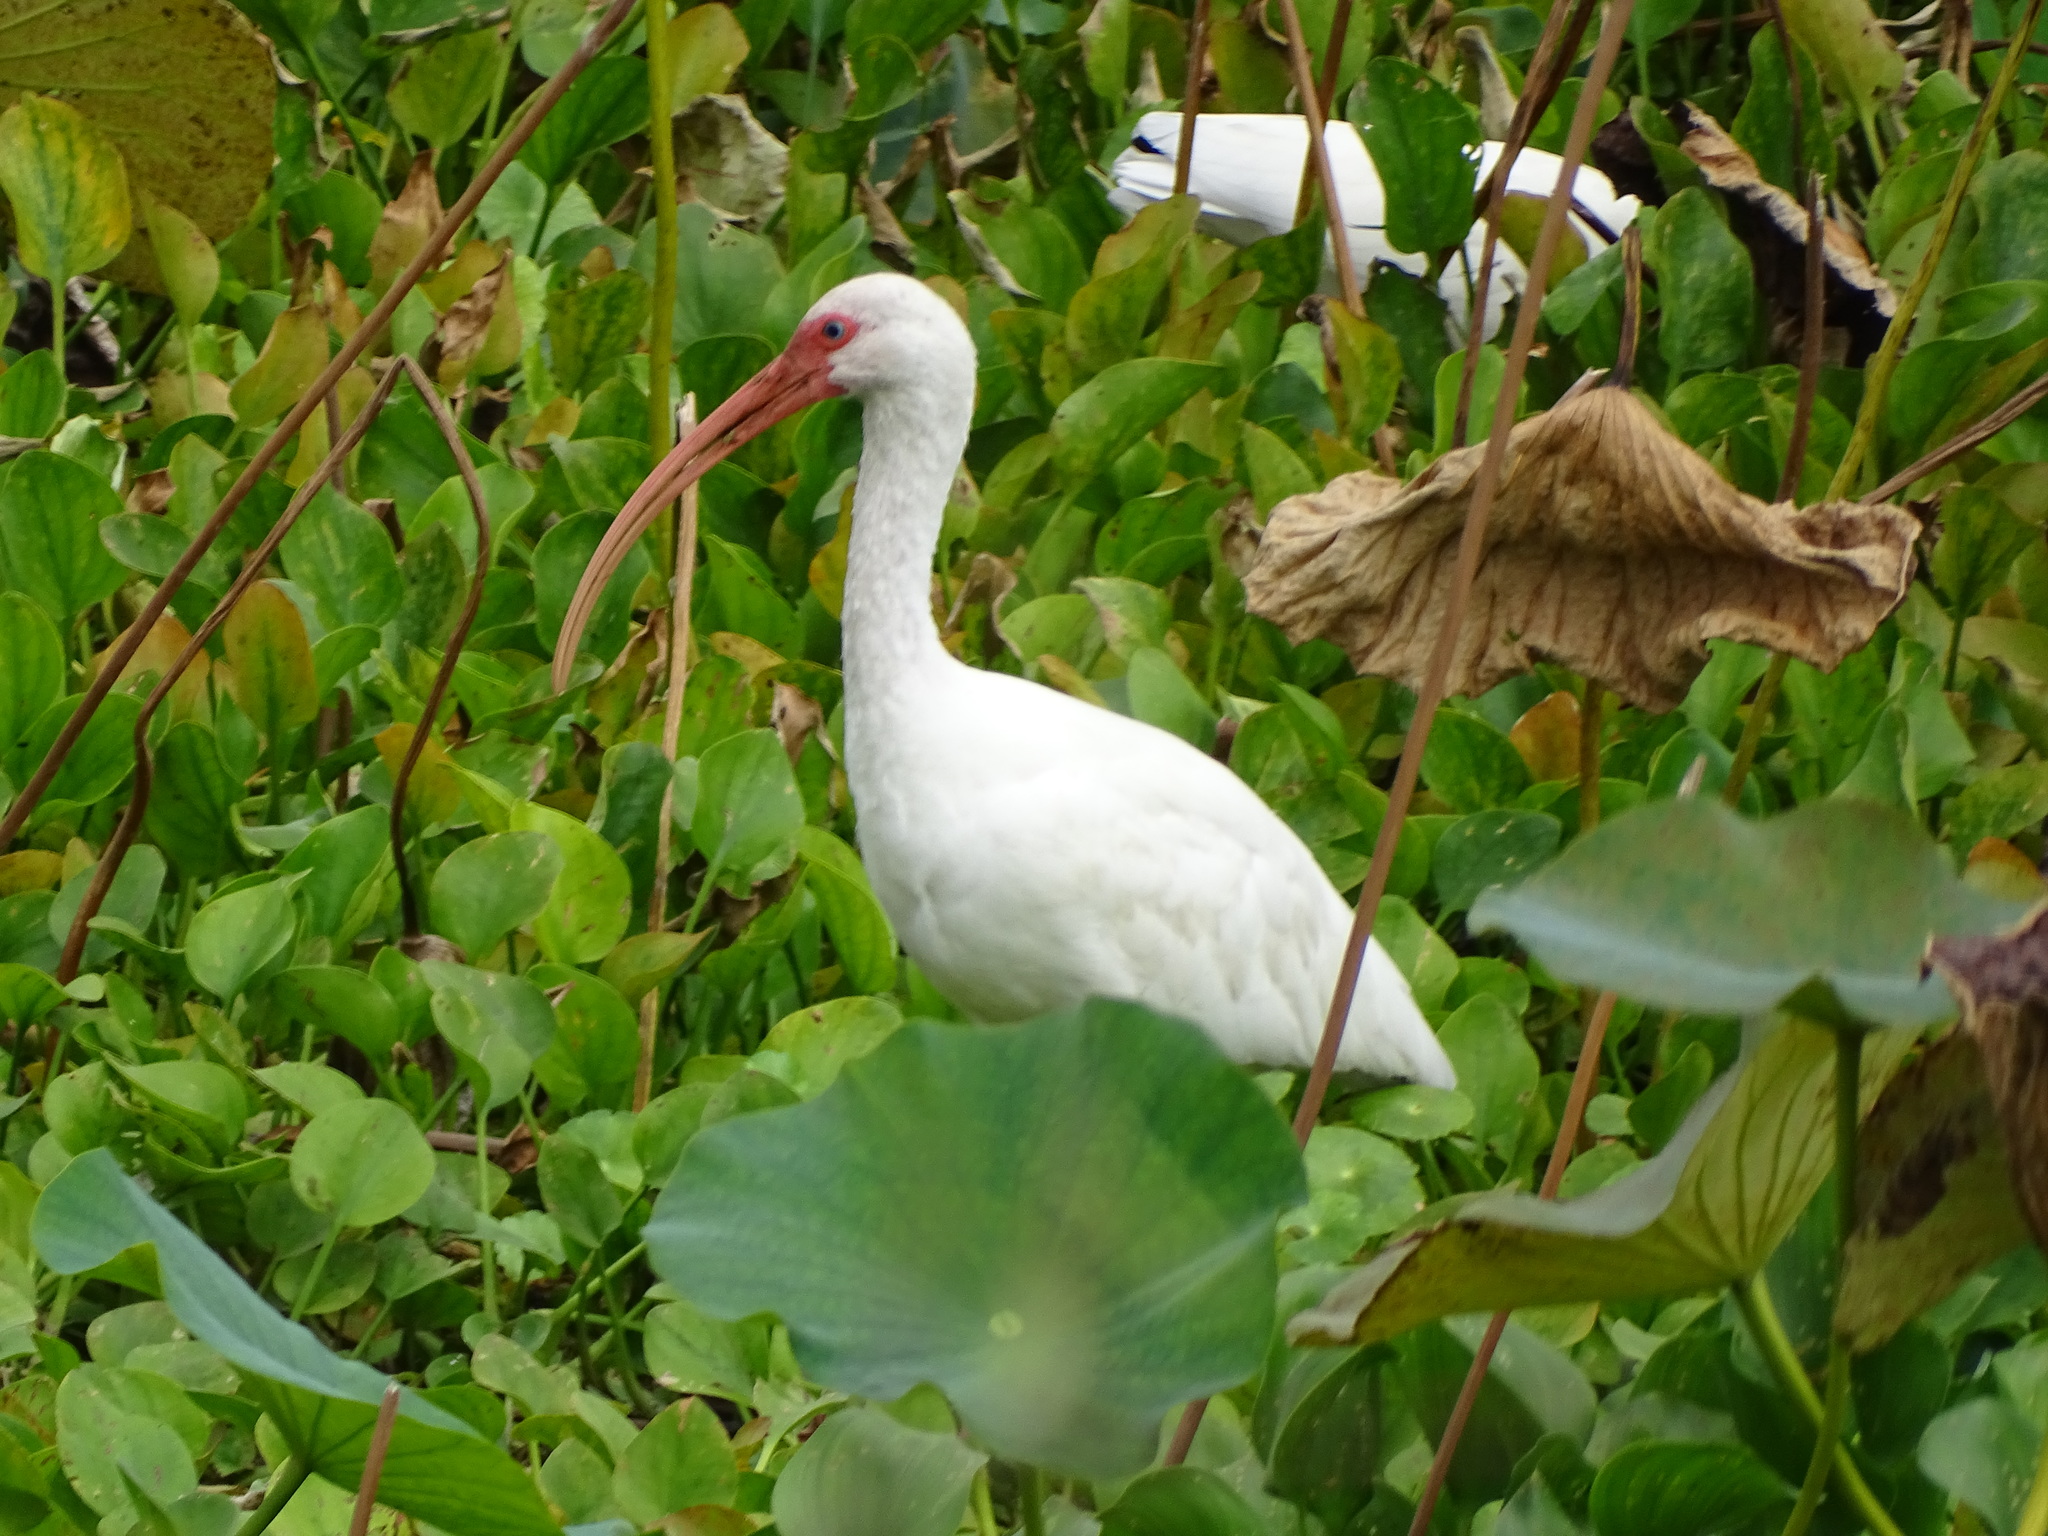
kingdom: Animalia
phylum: Chordata
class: Aves
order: Pelecaniformes
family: Threskiornithidae
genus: Eudocimus
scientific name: Eudocimus albus
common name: White ibis
